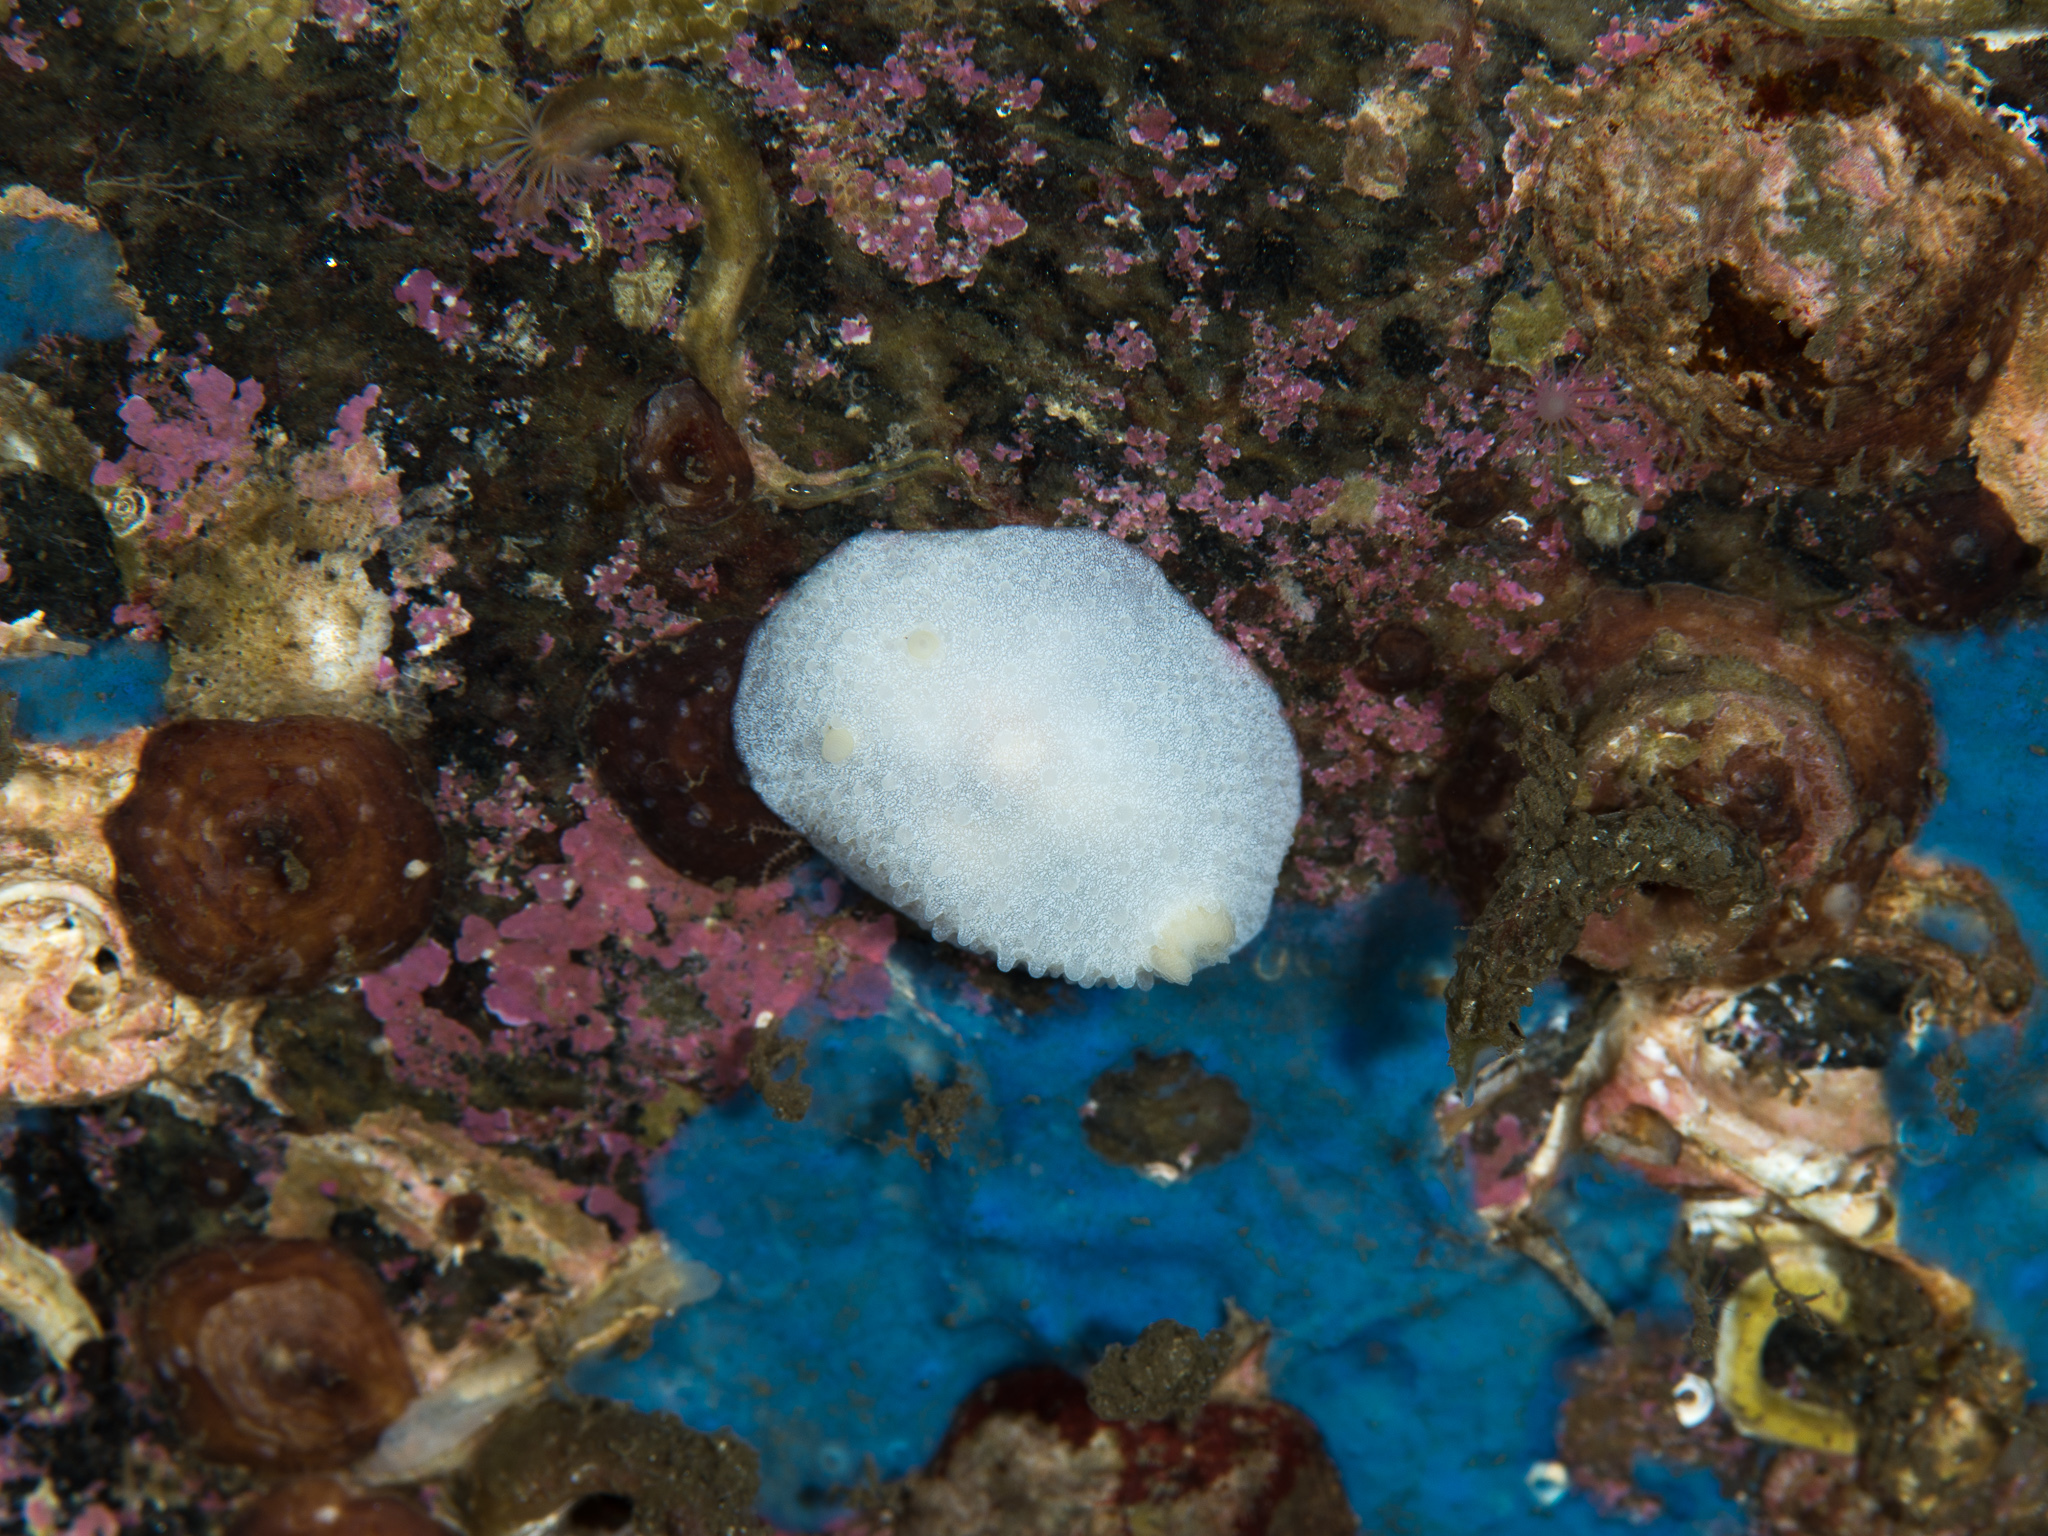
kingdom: Animalia
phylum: Mollusca
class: Gastropoda
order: Nudibranchia
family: Cadlinidae
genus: Aldisa
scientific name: Aldisa zetlandica
